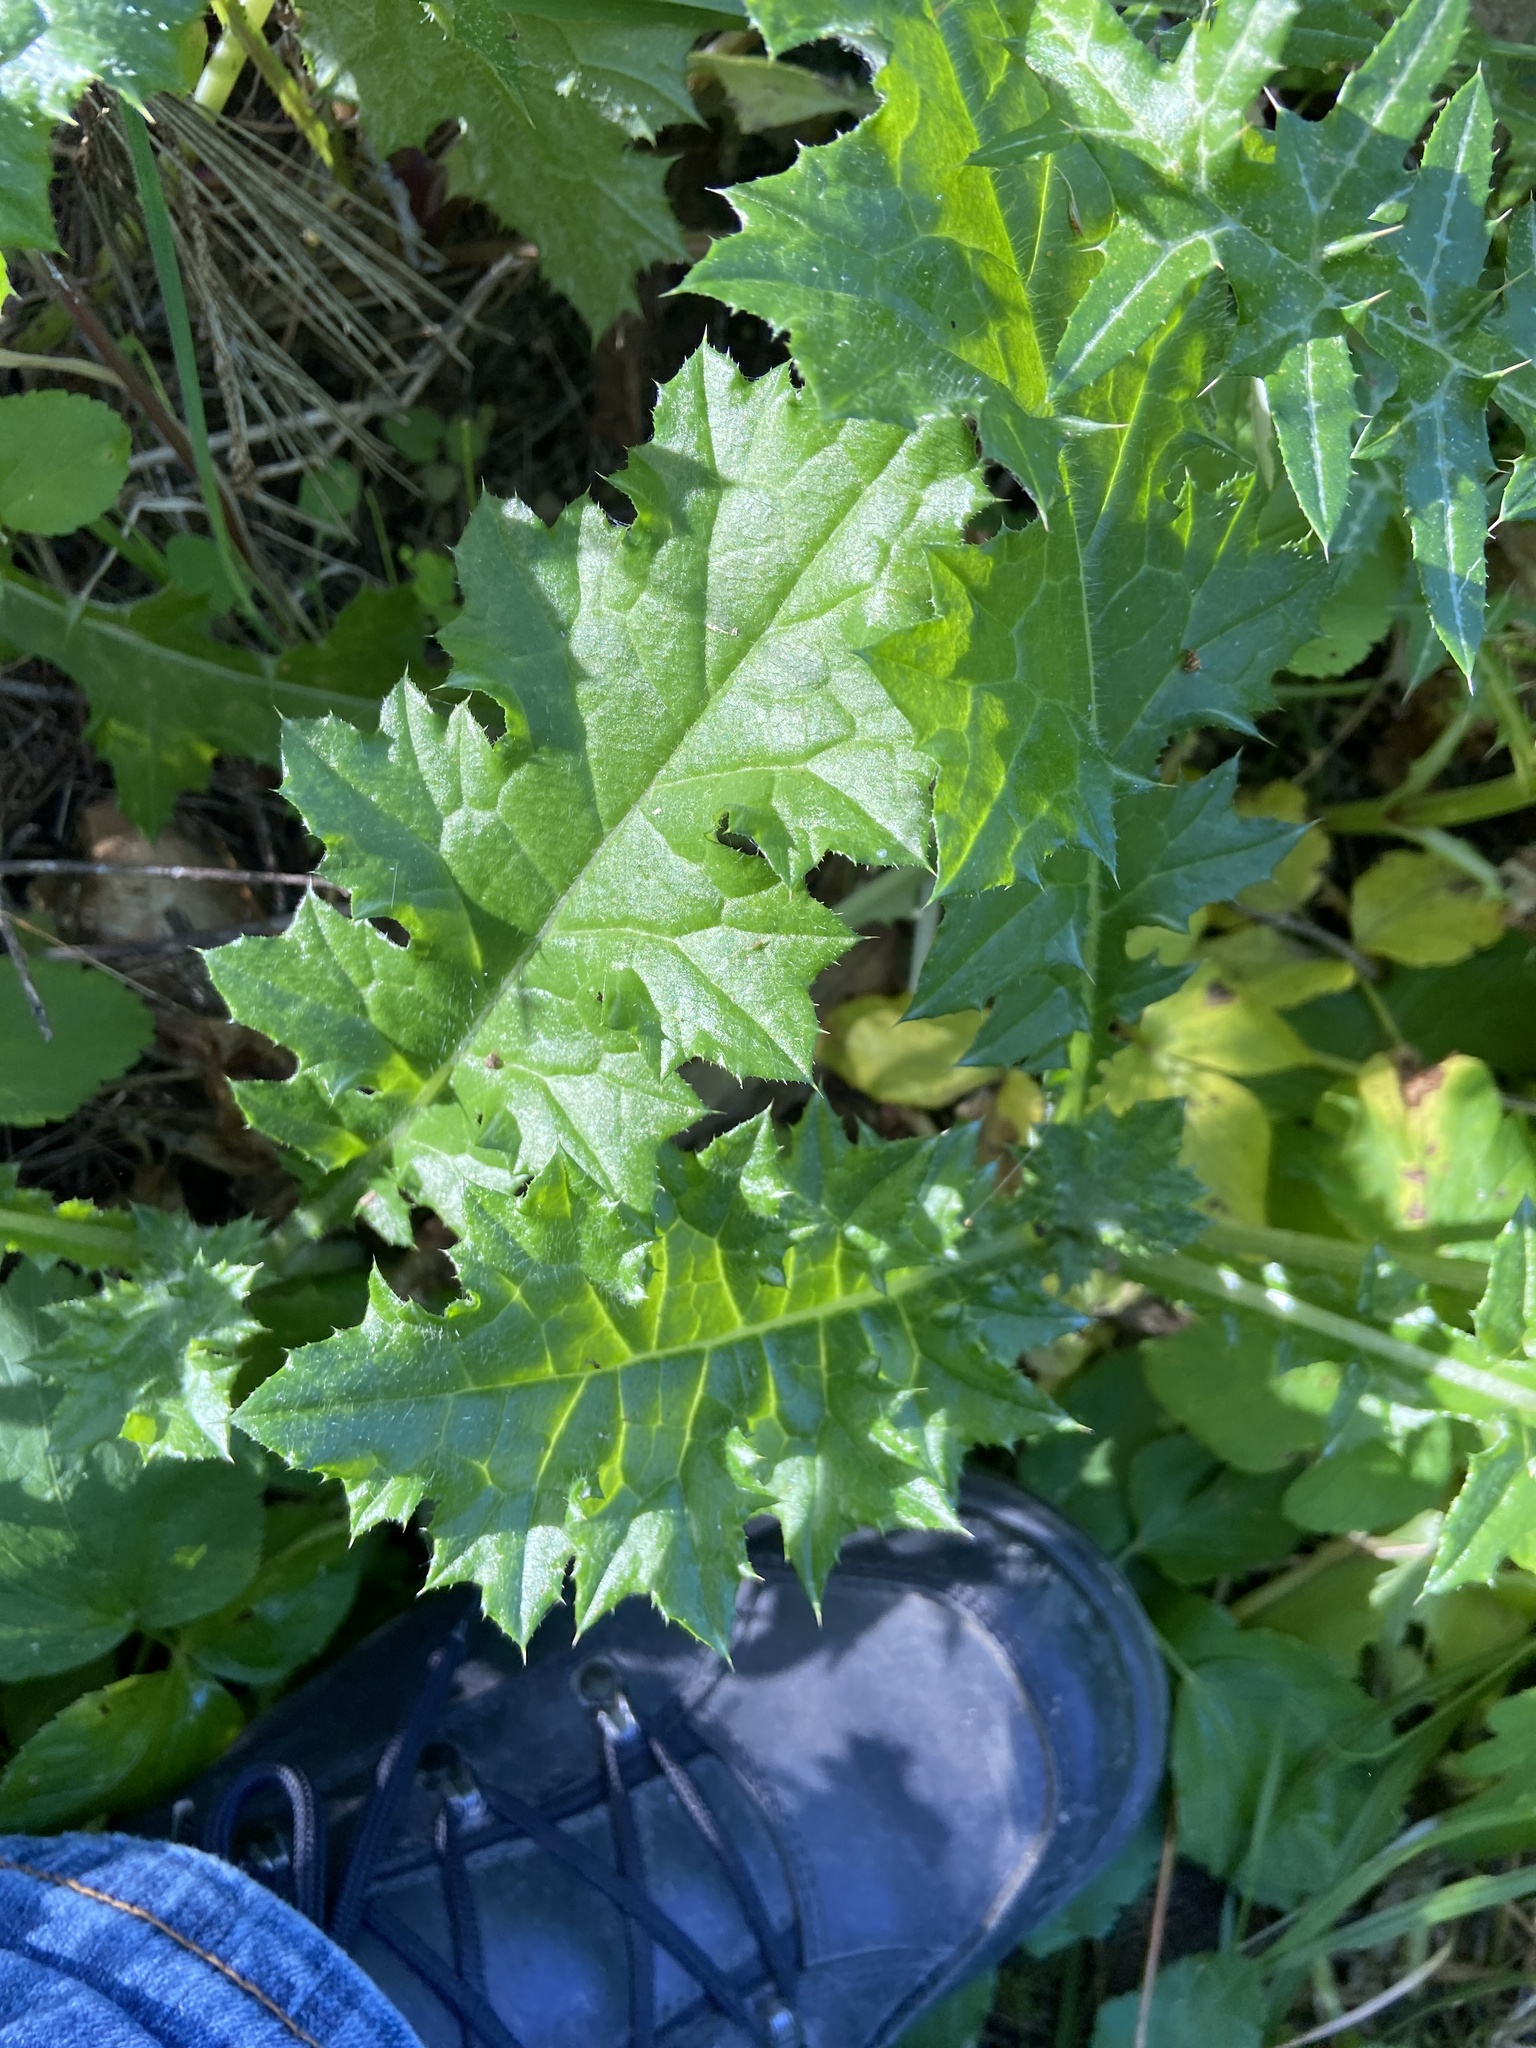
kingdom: Plantae
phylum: Tracheophyta
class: Magnoliopsida
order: Asterales
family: Asteraceae
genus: Carduus
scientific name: Carduus pycnocephalus
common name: Plymouth thistle
